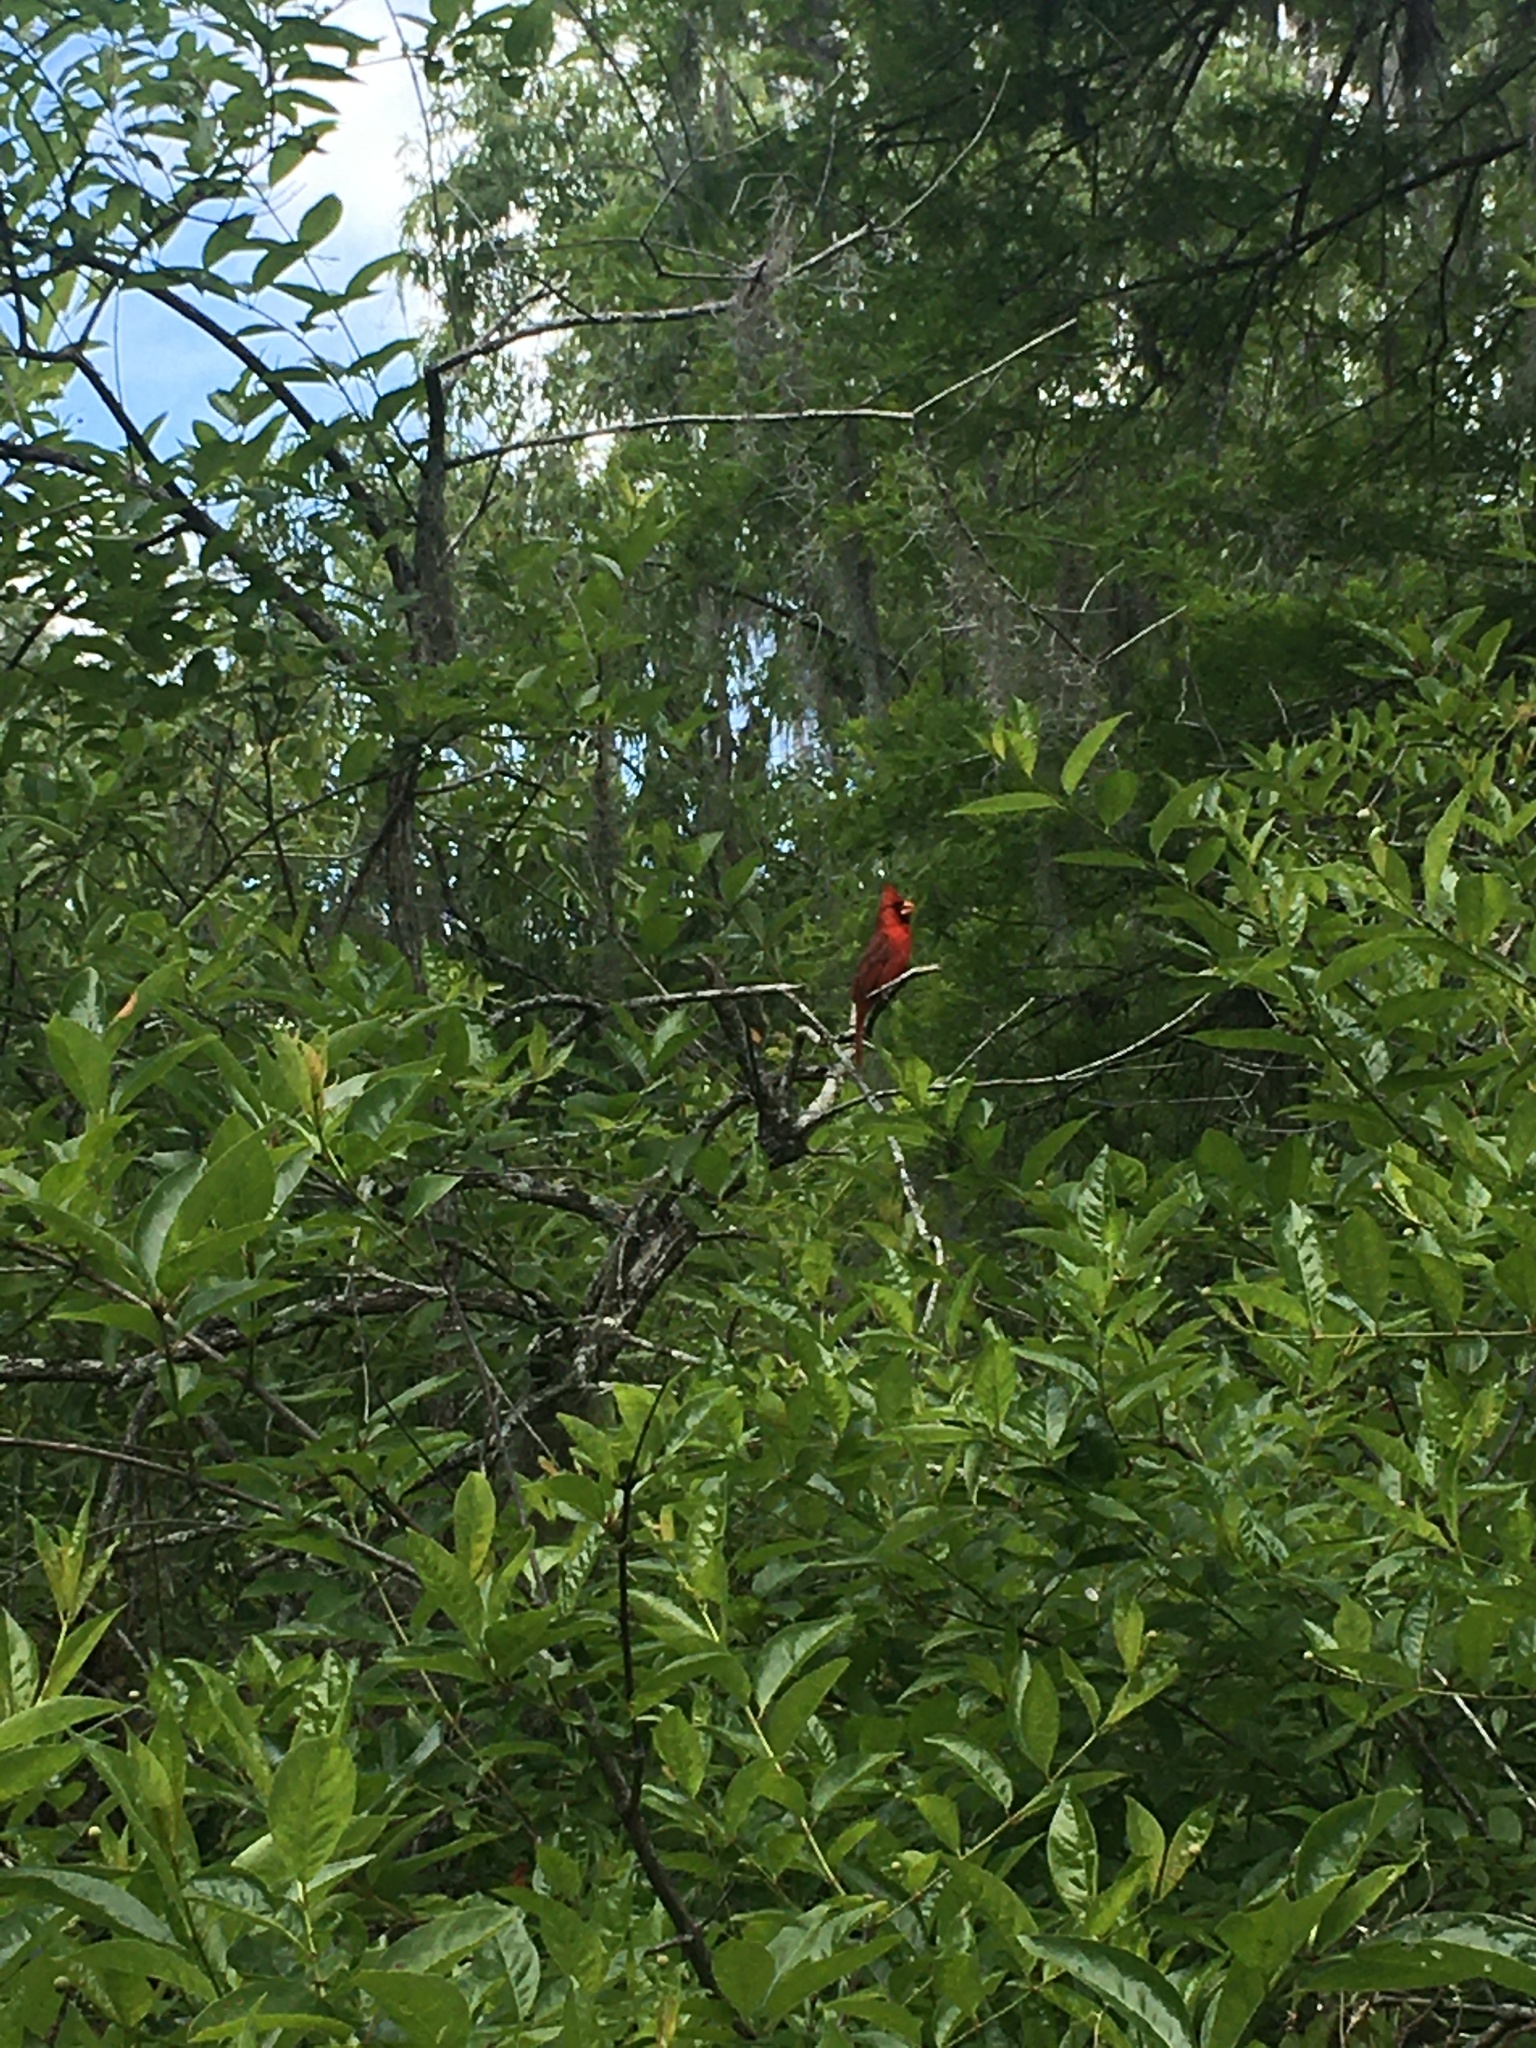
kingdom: Animalia
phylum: Chordata
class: Aves
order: Passeriformes
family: Cardinalidae
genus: Cardinalis
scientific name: Cardinalis cardinalis
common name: Northern cardinal
